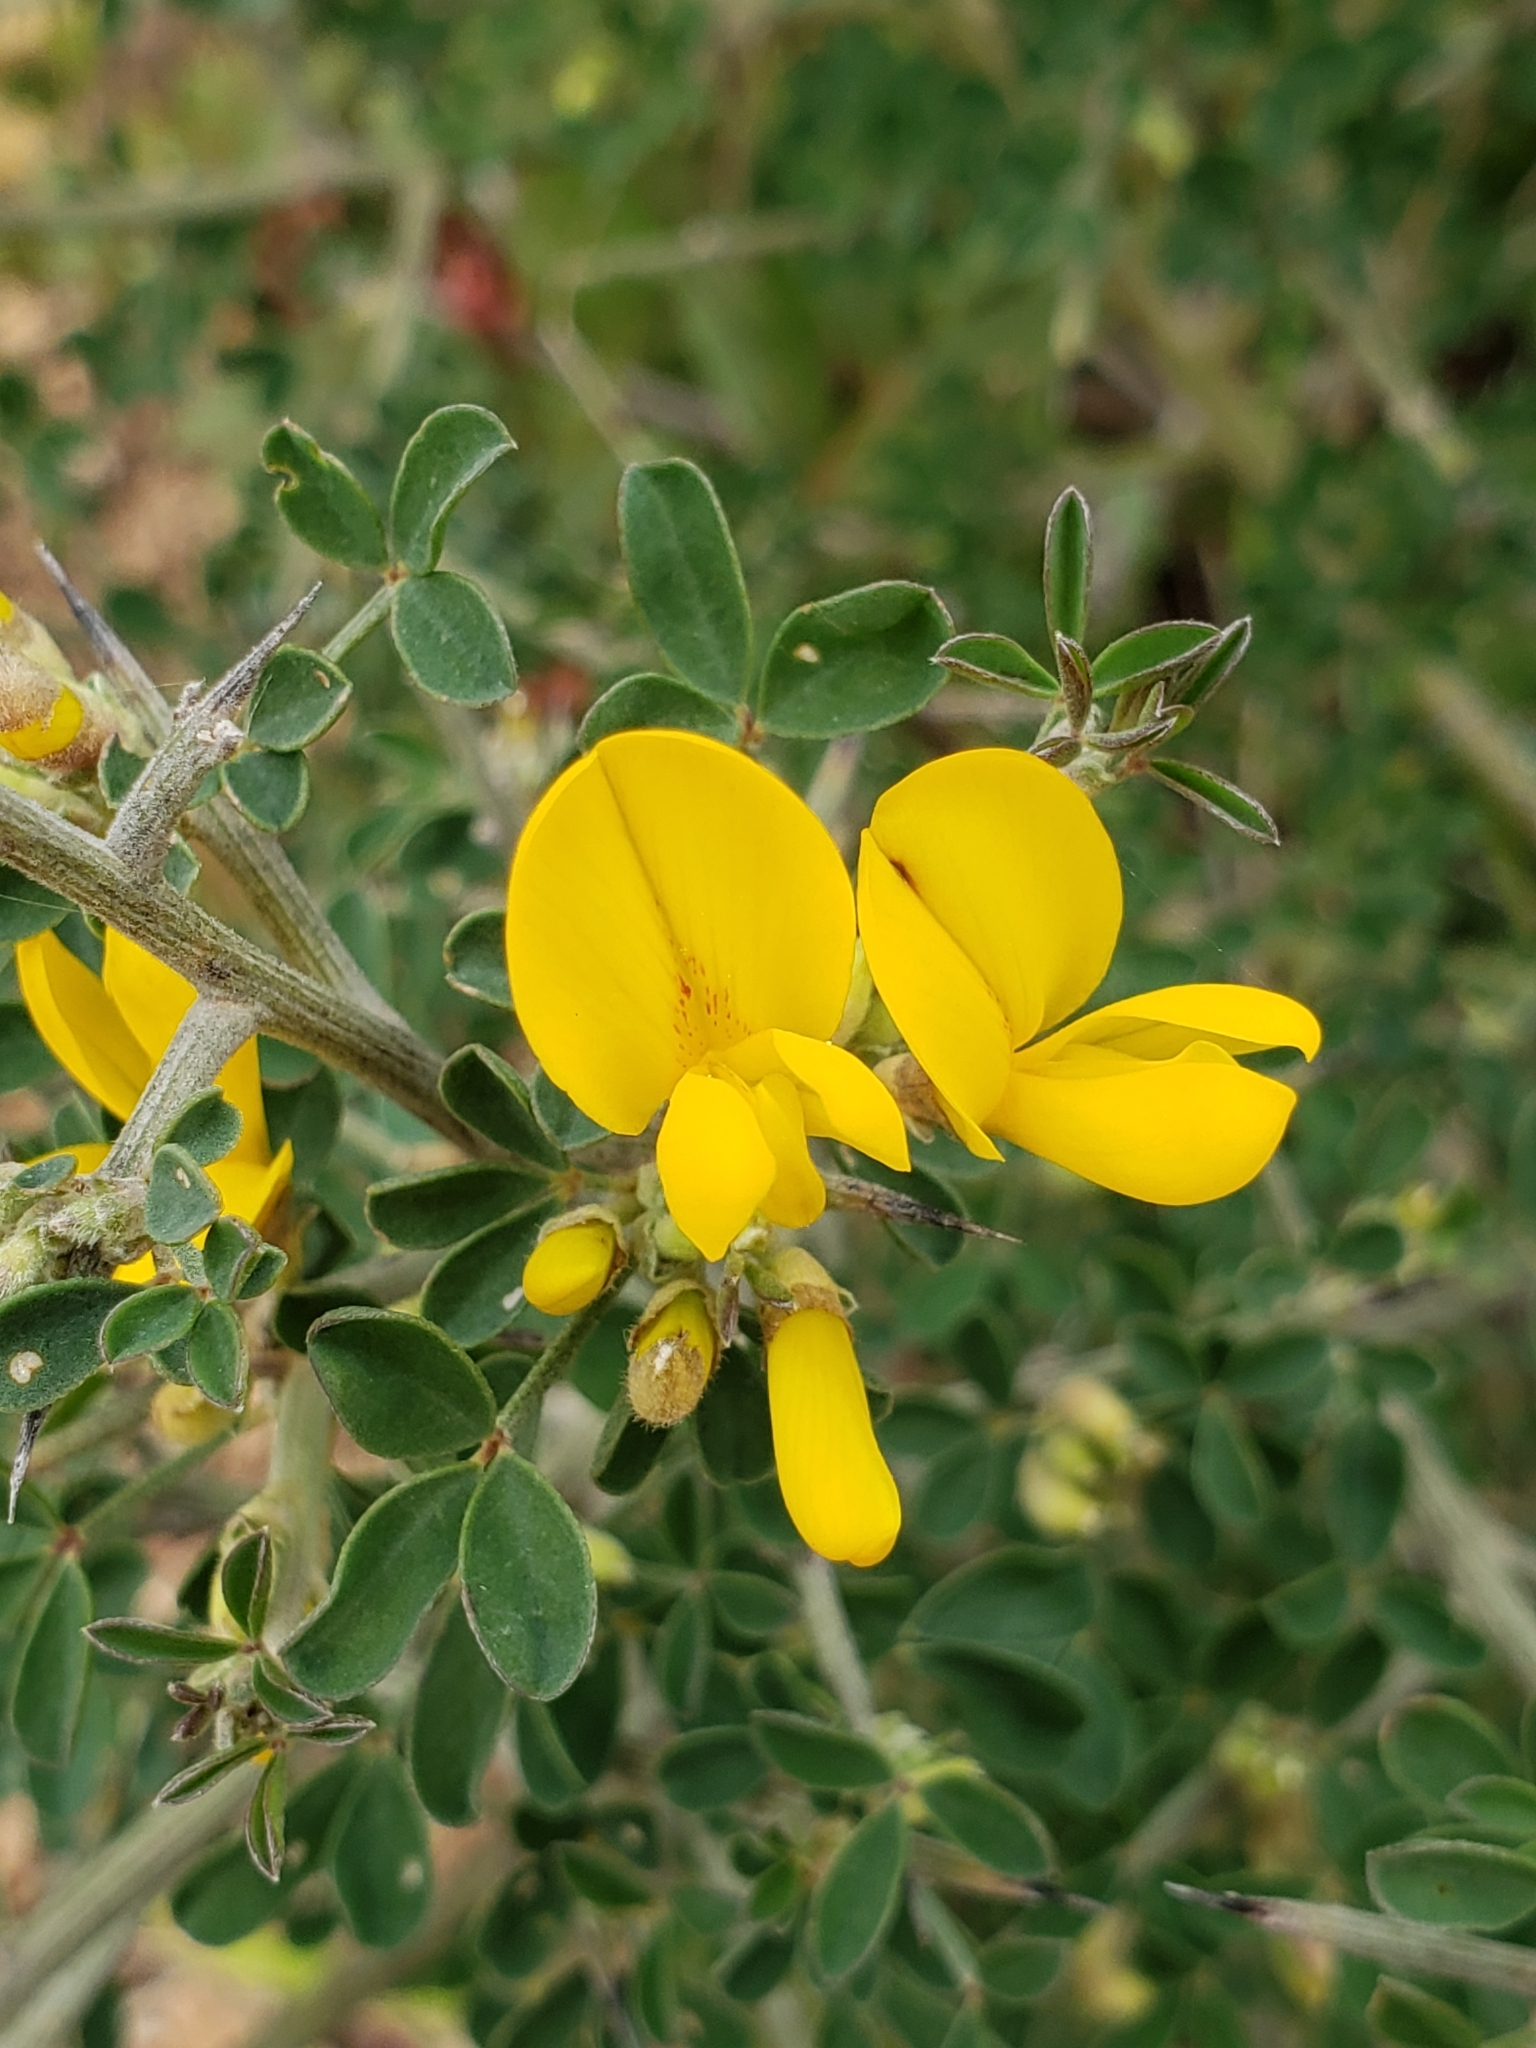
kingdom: Plantae
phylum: Tracheophyta
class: Magnoliopsida
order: Fabales
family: Fabaceae
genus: Calicotome
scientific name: Calicotome villosa
